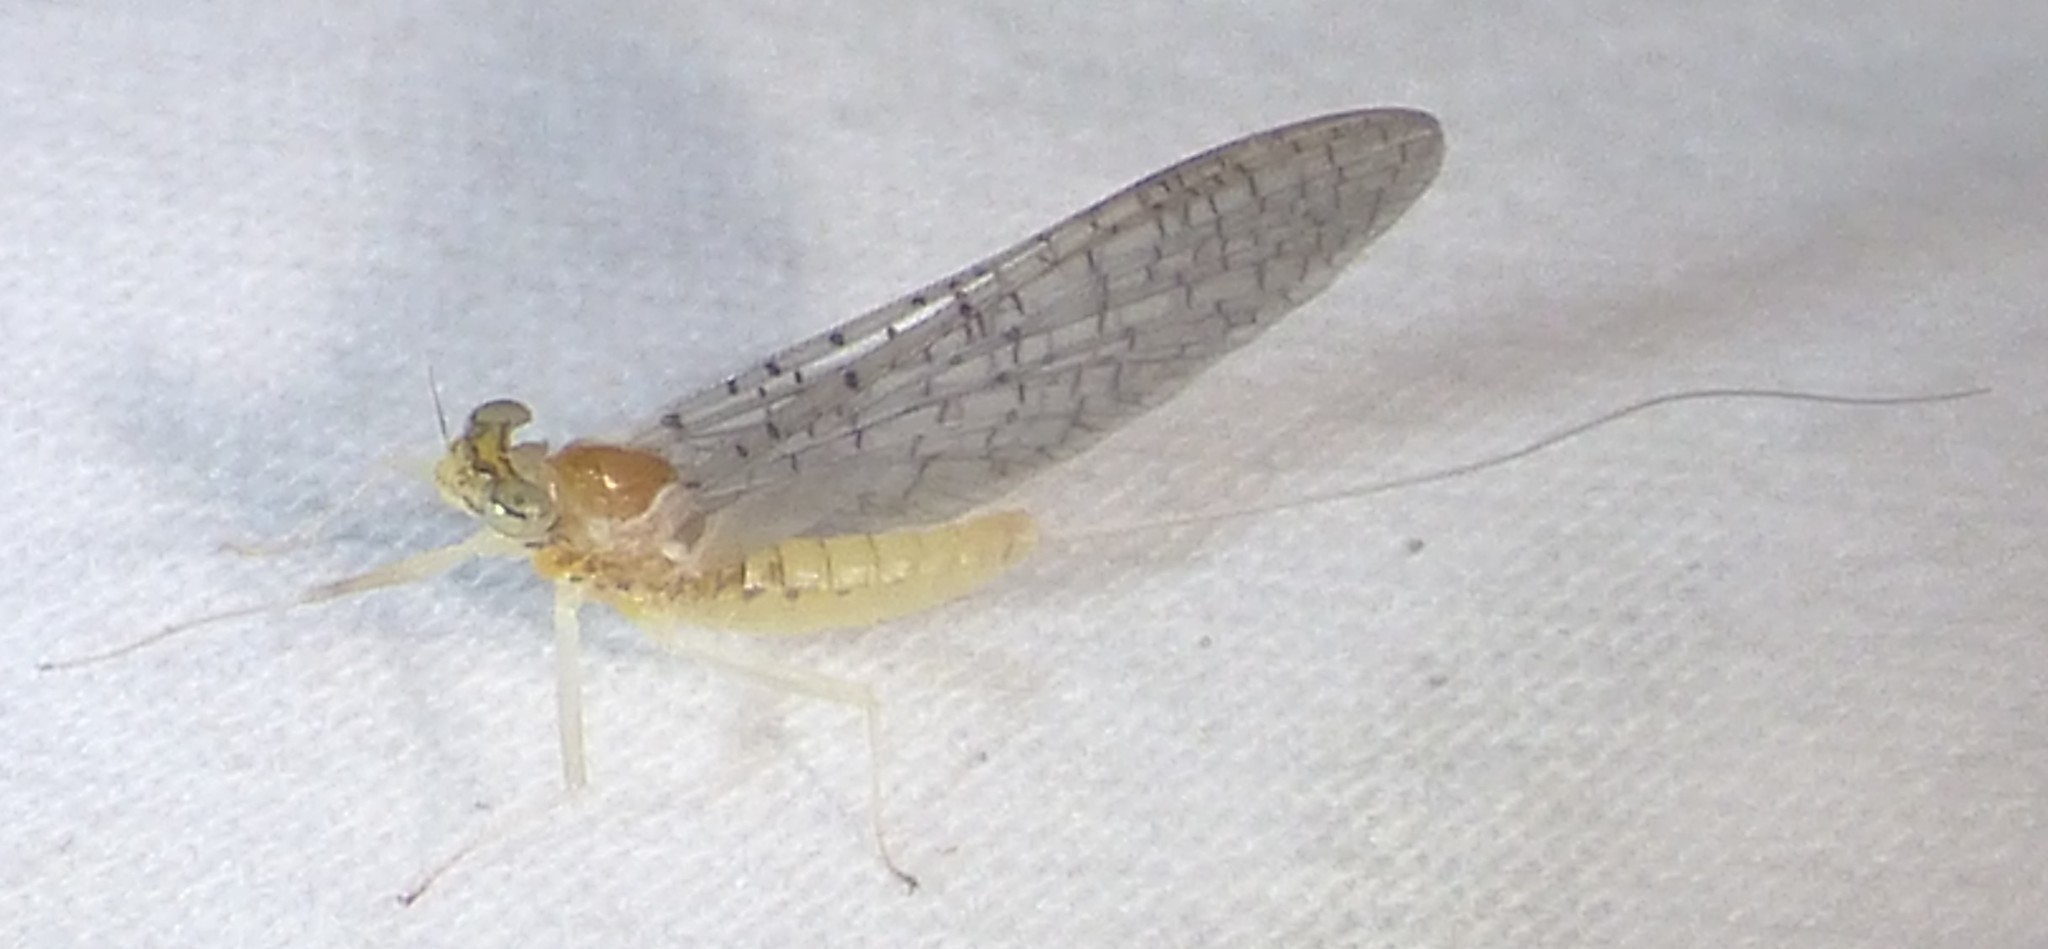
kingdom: Animalia
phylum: Arthropoda
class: Insecta
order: Ephemeroptera
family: Heptageniidae
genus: Leucrocuta
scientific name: Leucrocuta juno
